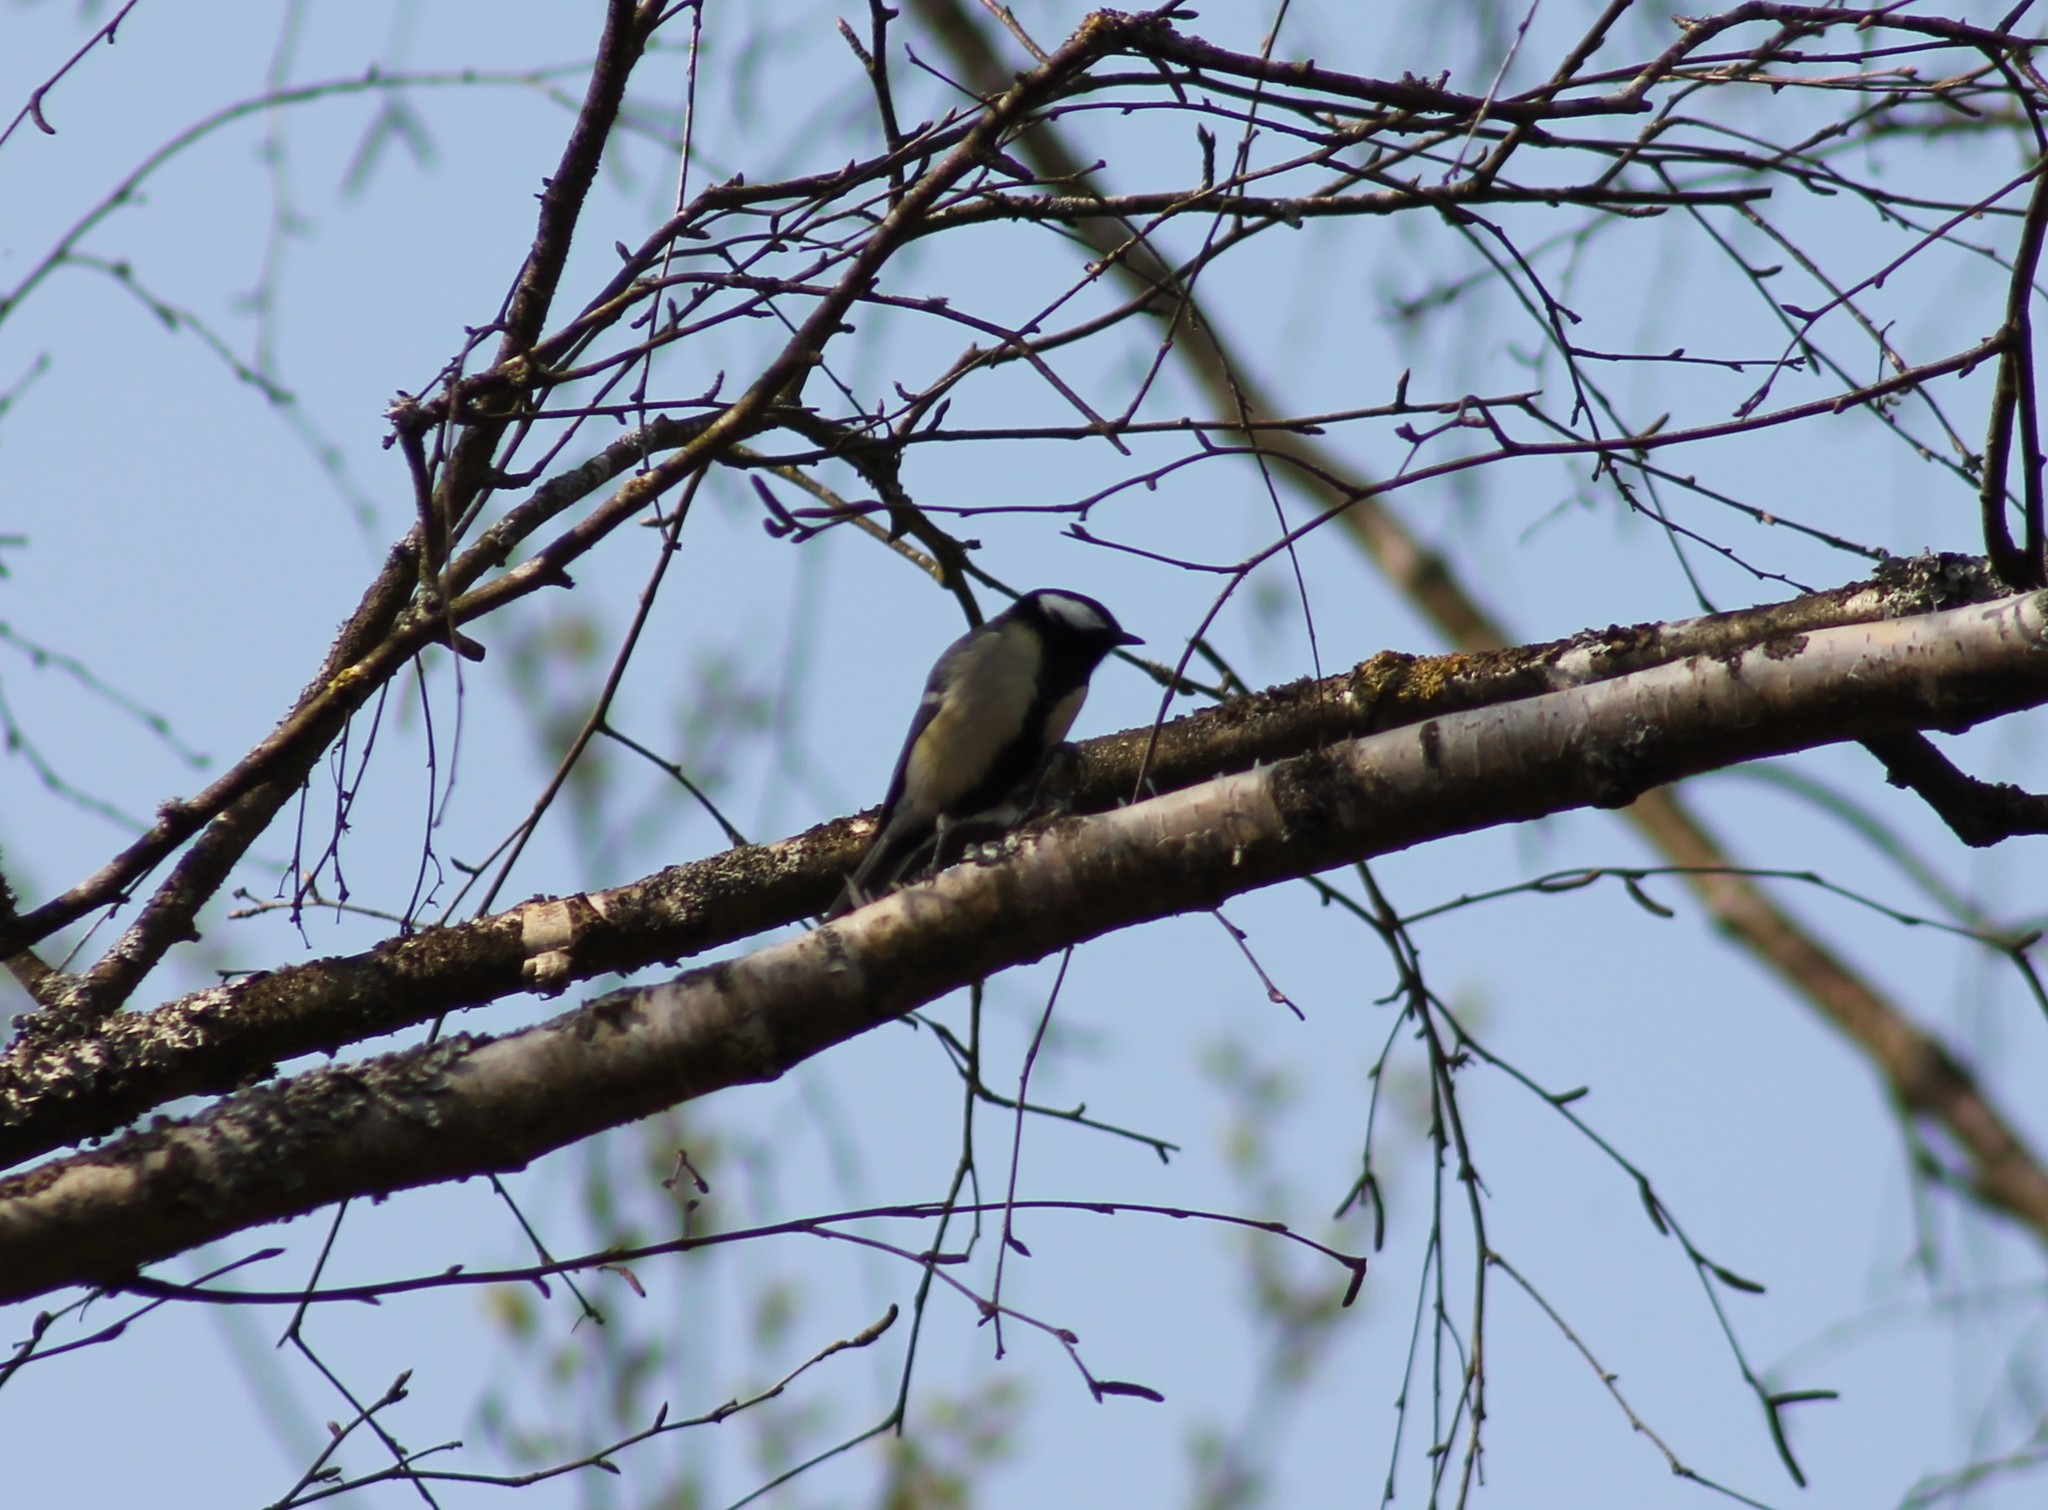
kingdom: Animalia
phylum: Chordata
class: Aves
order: Passeriformes
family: Paridae
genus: Parus
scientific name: Parus major
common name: Great tit
